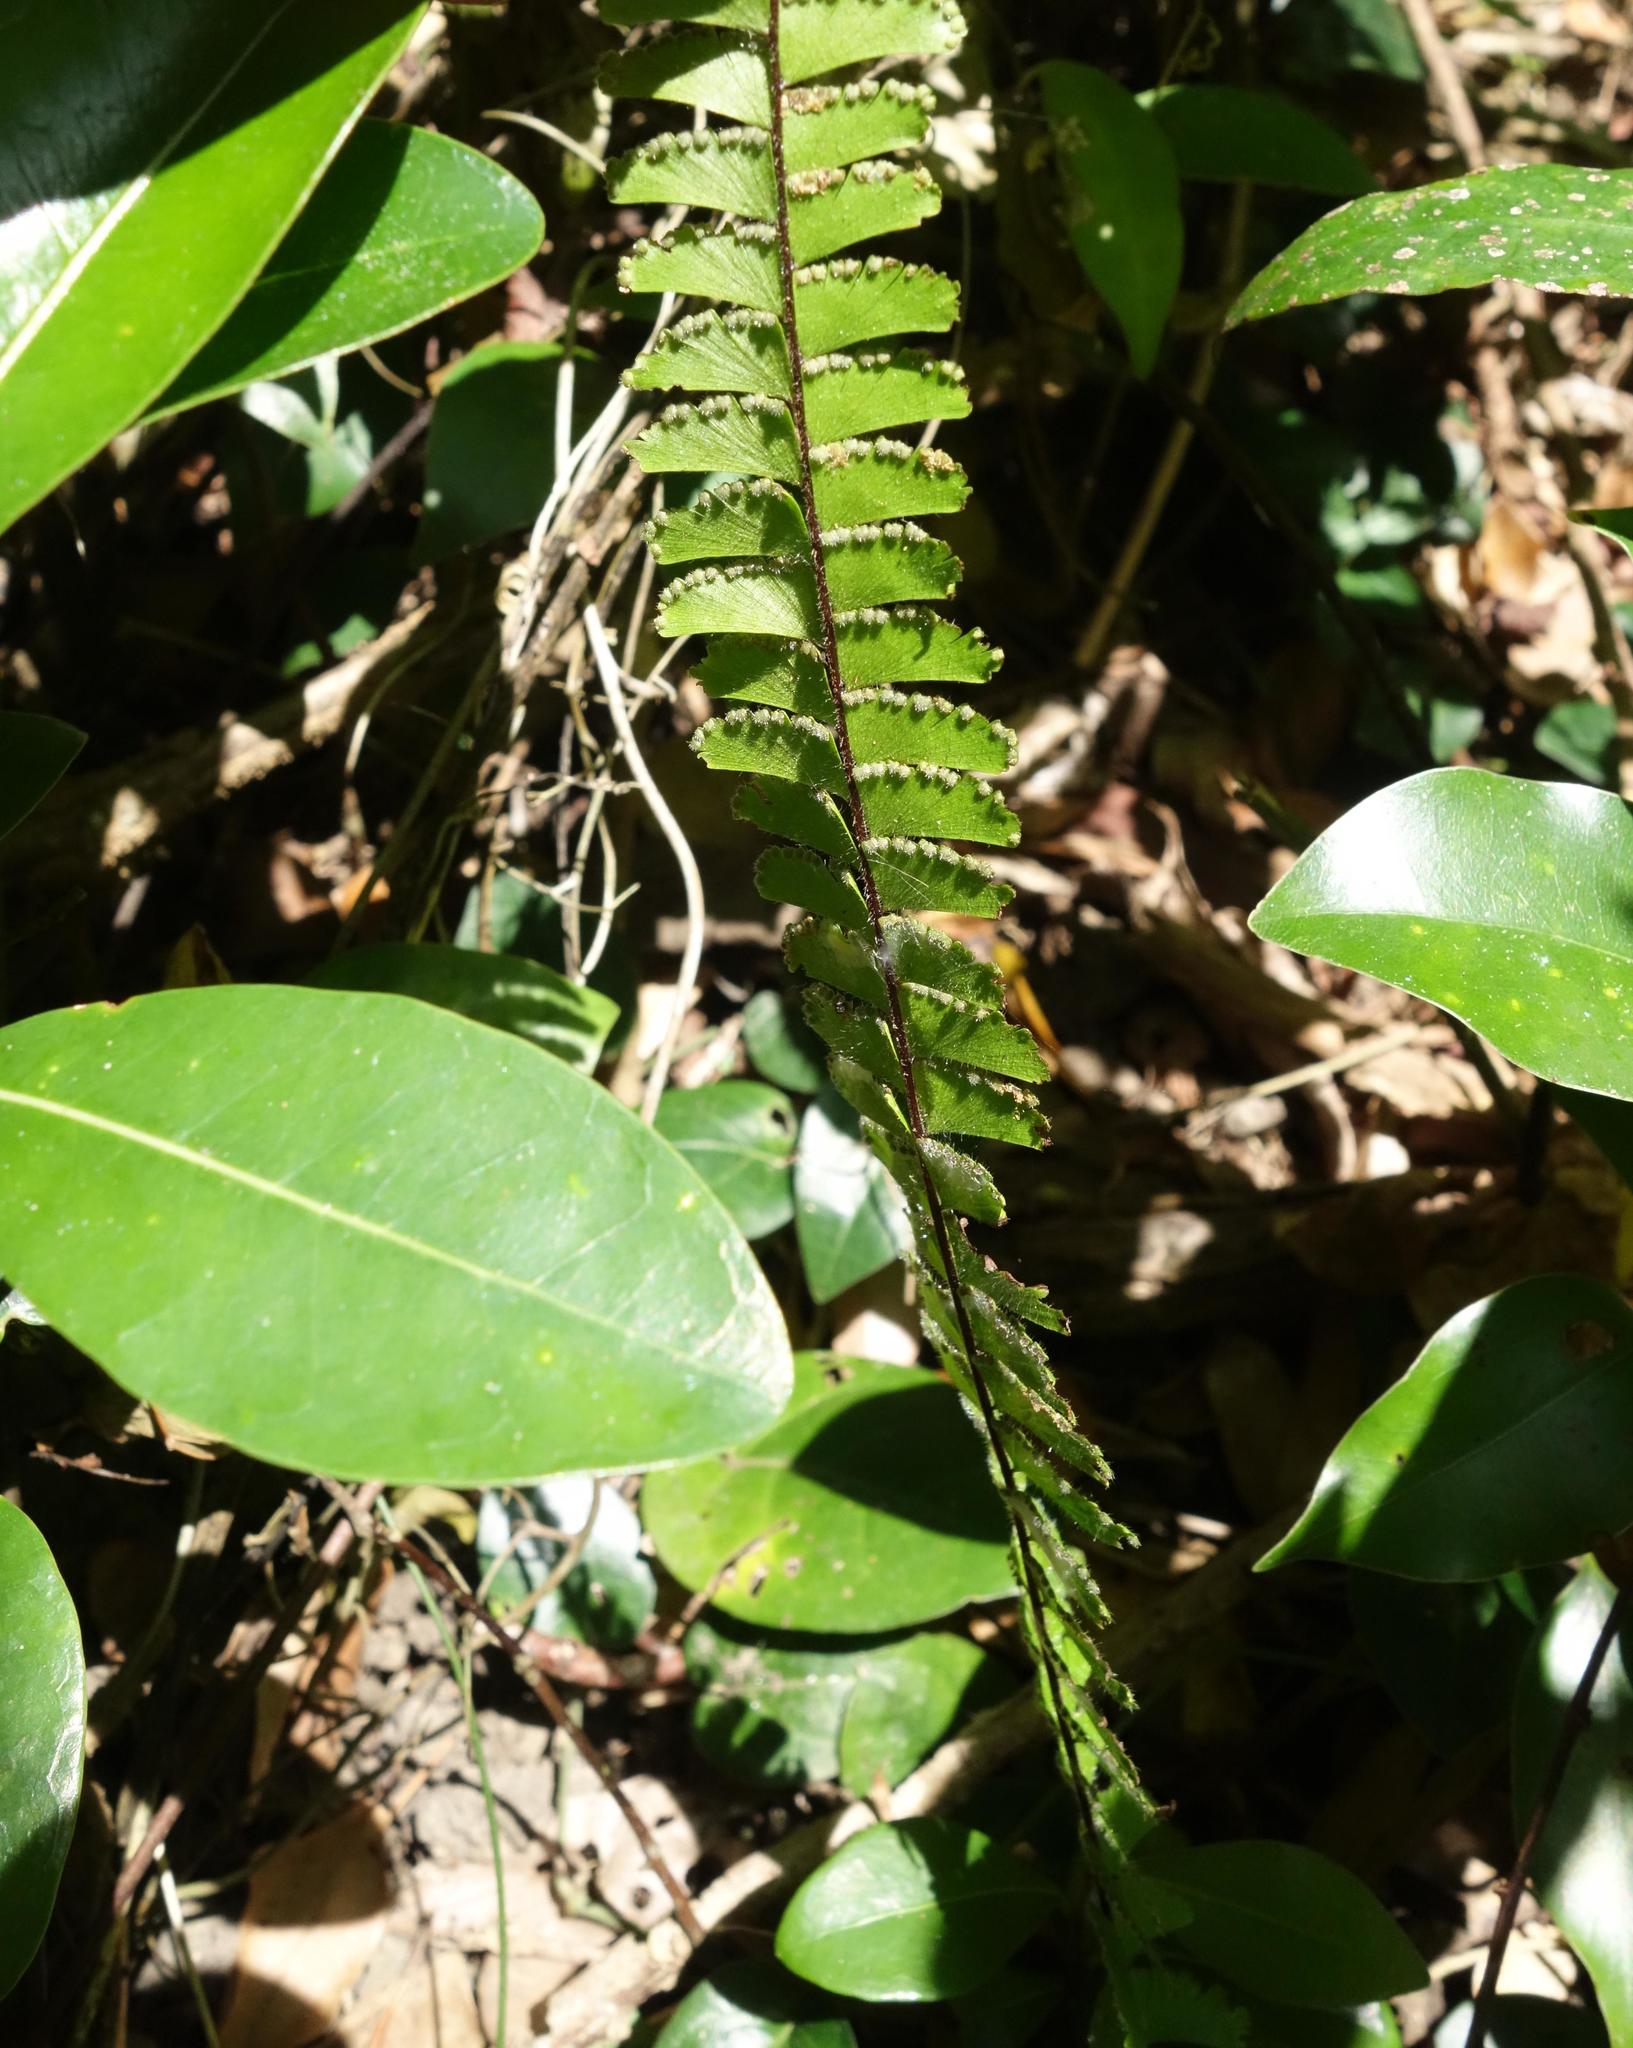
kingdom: Plantae
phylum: Tracheophyta
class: Polypodiopsida
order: Polypodiales
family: Pteridaceae
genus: Adiantum
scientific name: Adiantum caudatum
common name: Tailed maidenhair
